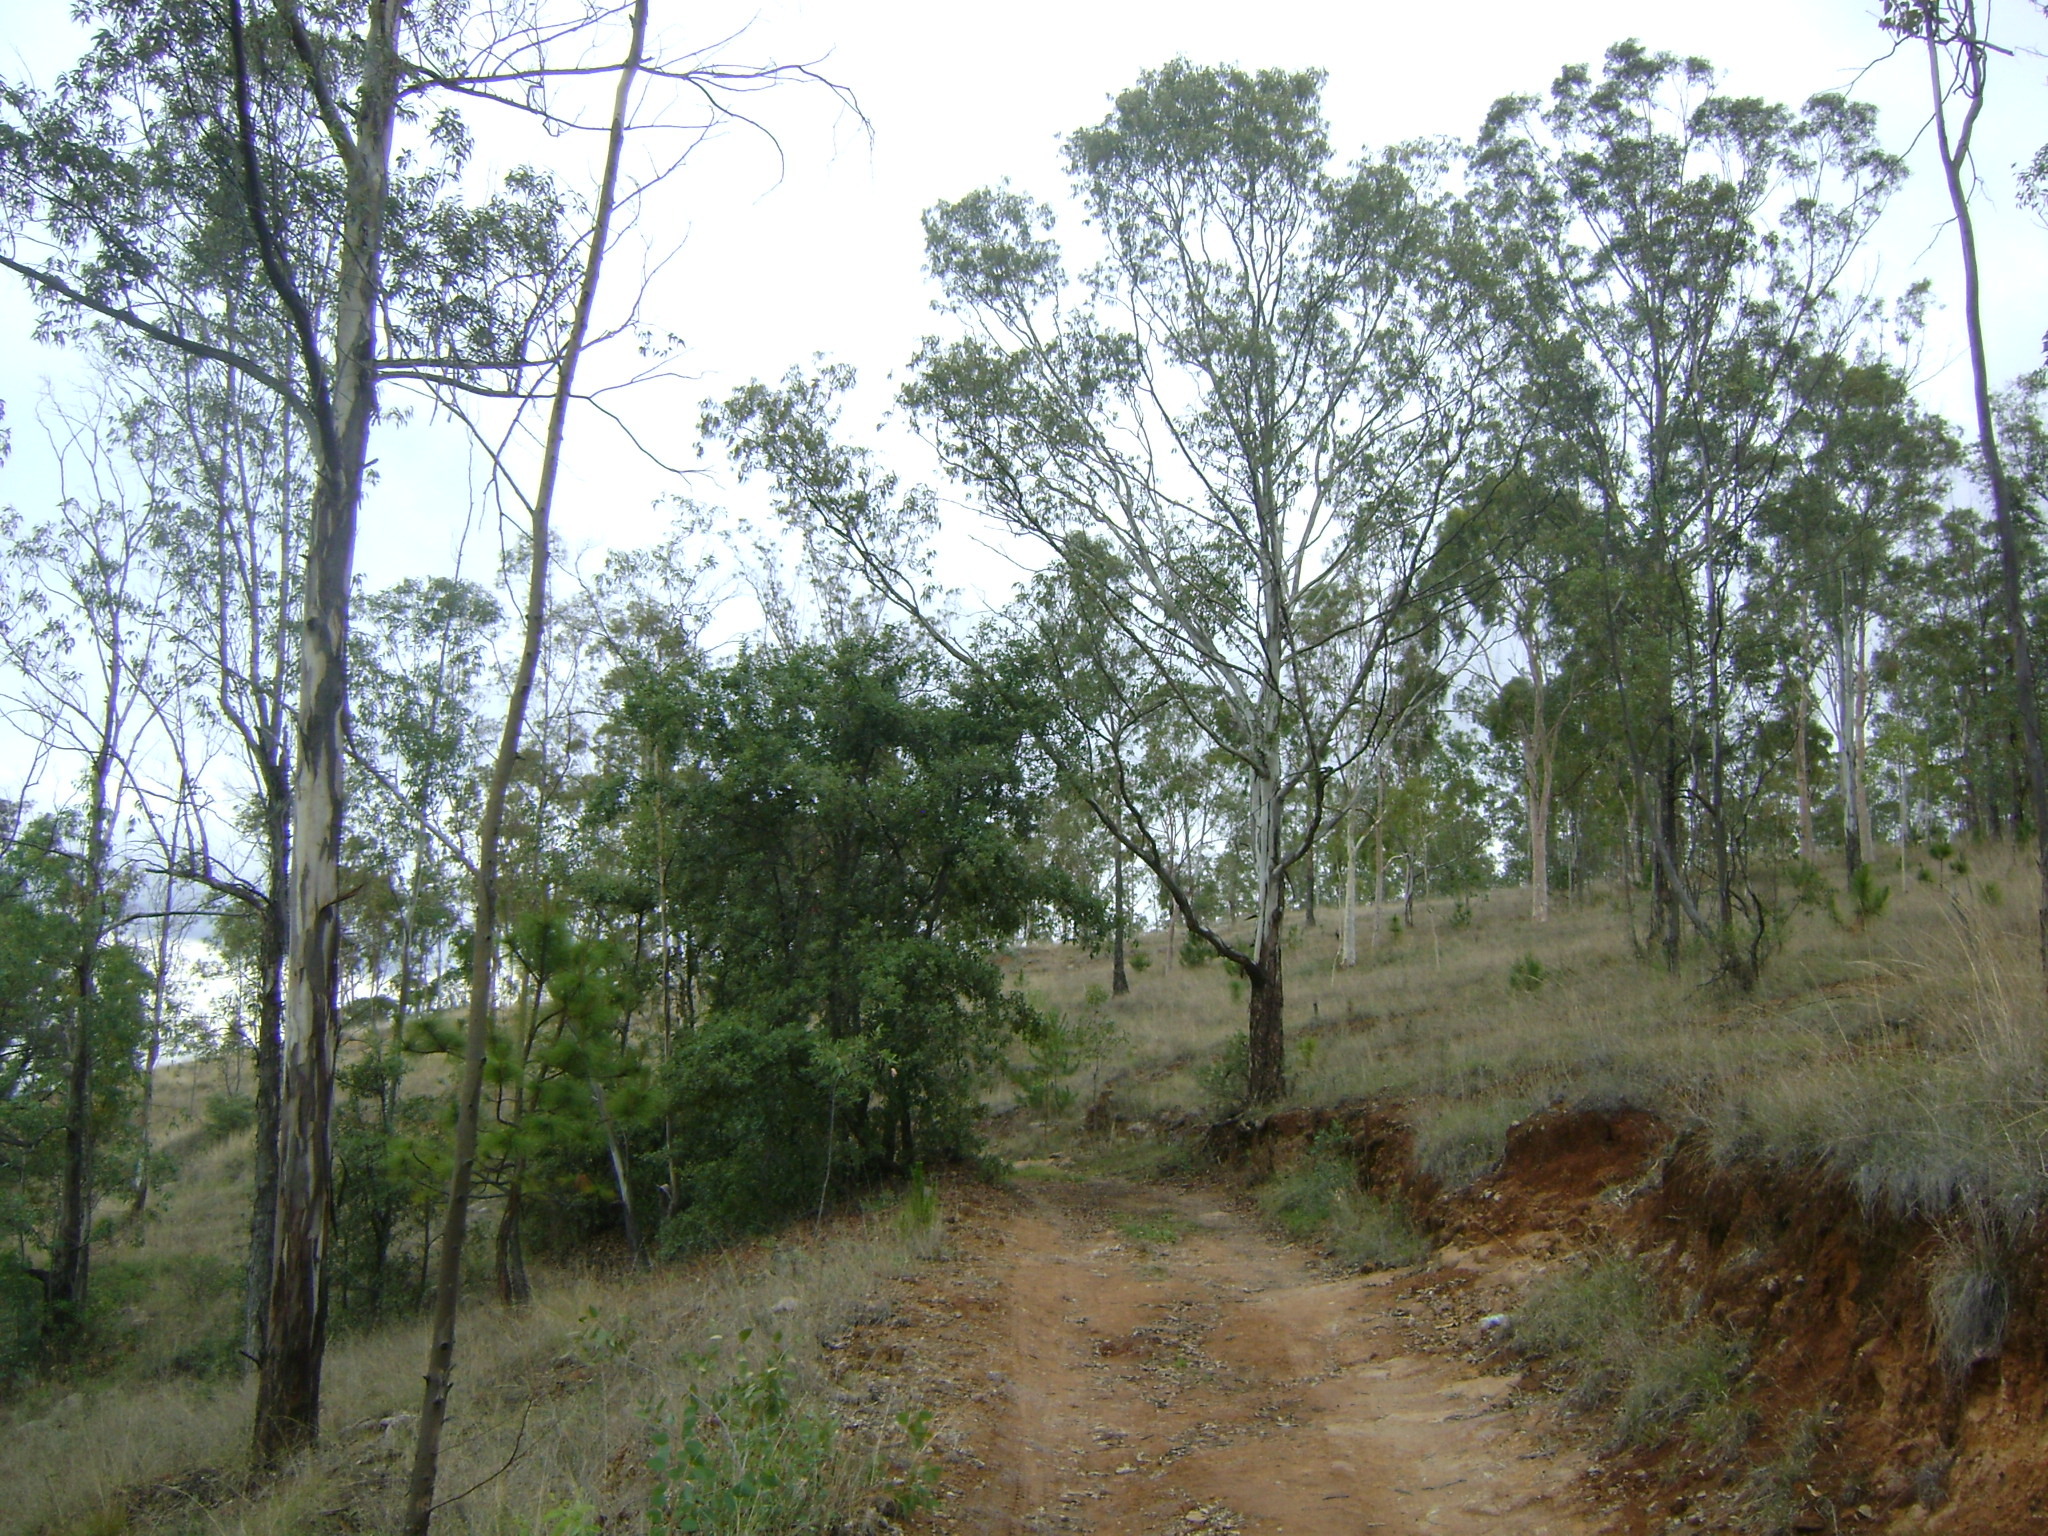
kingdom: Plantae
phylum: Tracheophyta
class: Magnoliopsida
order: Myrtales
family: Myrtaceae
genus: Eucalyptus
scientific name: Eucalyptus camaldulensis
